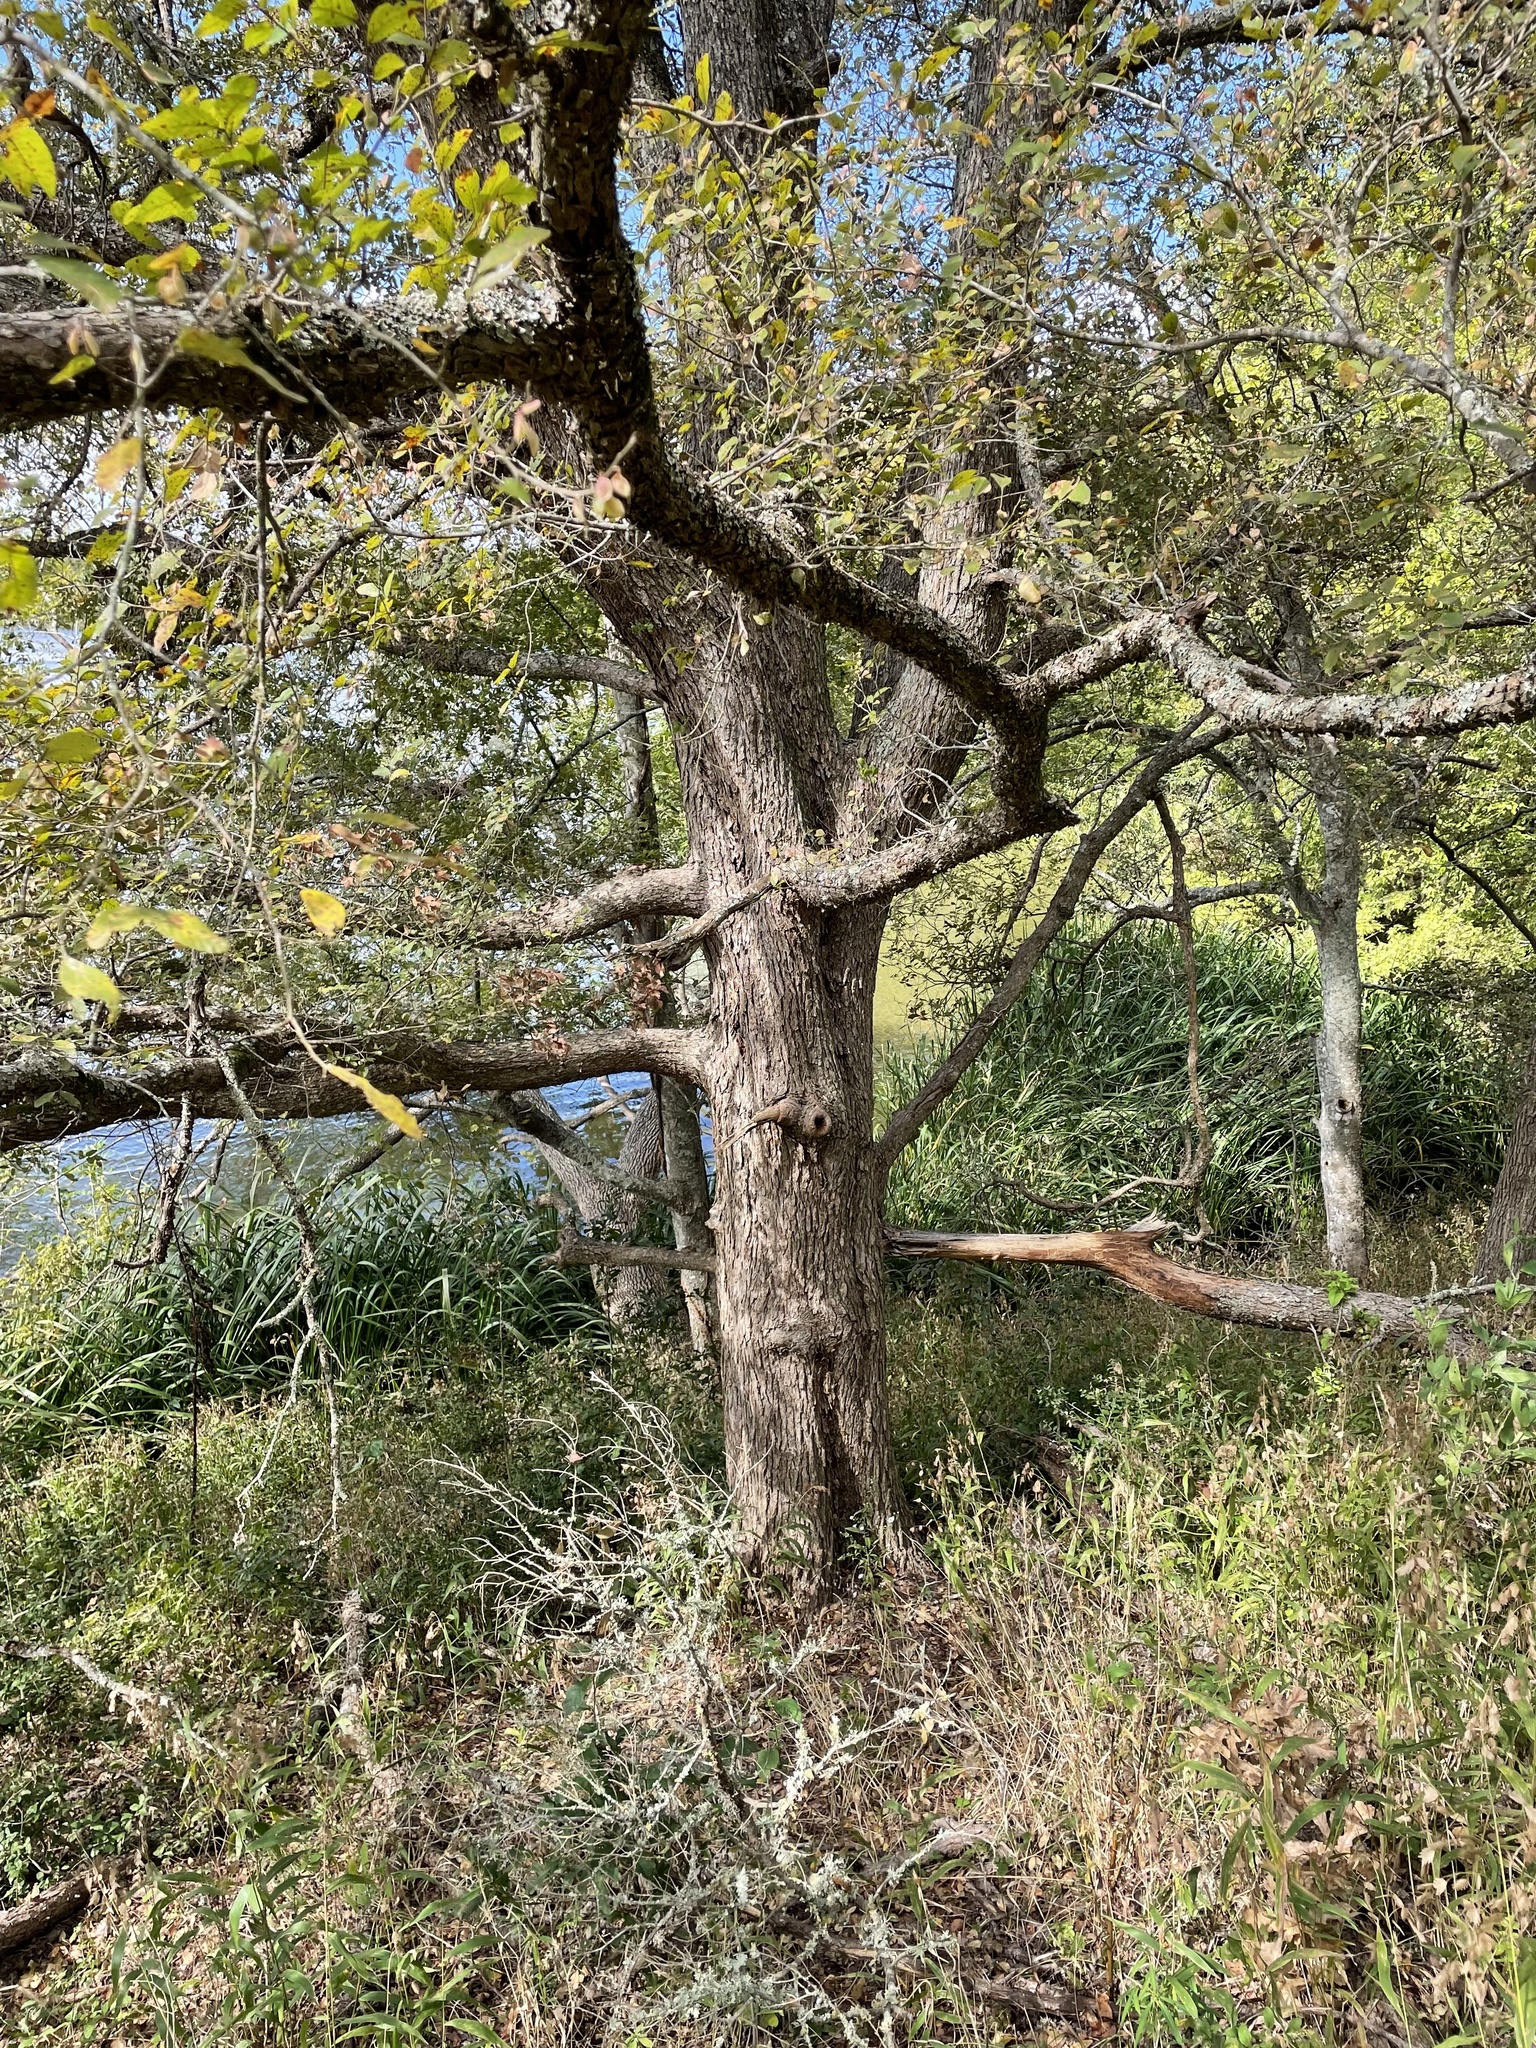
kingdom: Plantae
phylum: Tracheophyta
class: Magnoliopsida
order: Rosales
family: Ulmaceae
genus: Ulmus
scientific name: Ulmus crassifolia
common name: Basket elm
